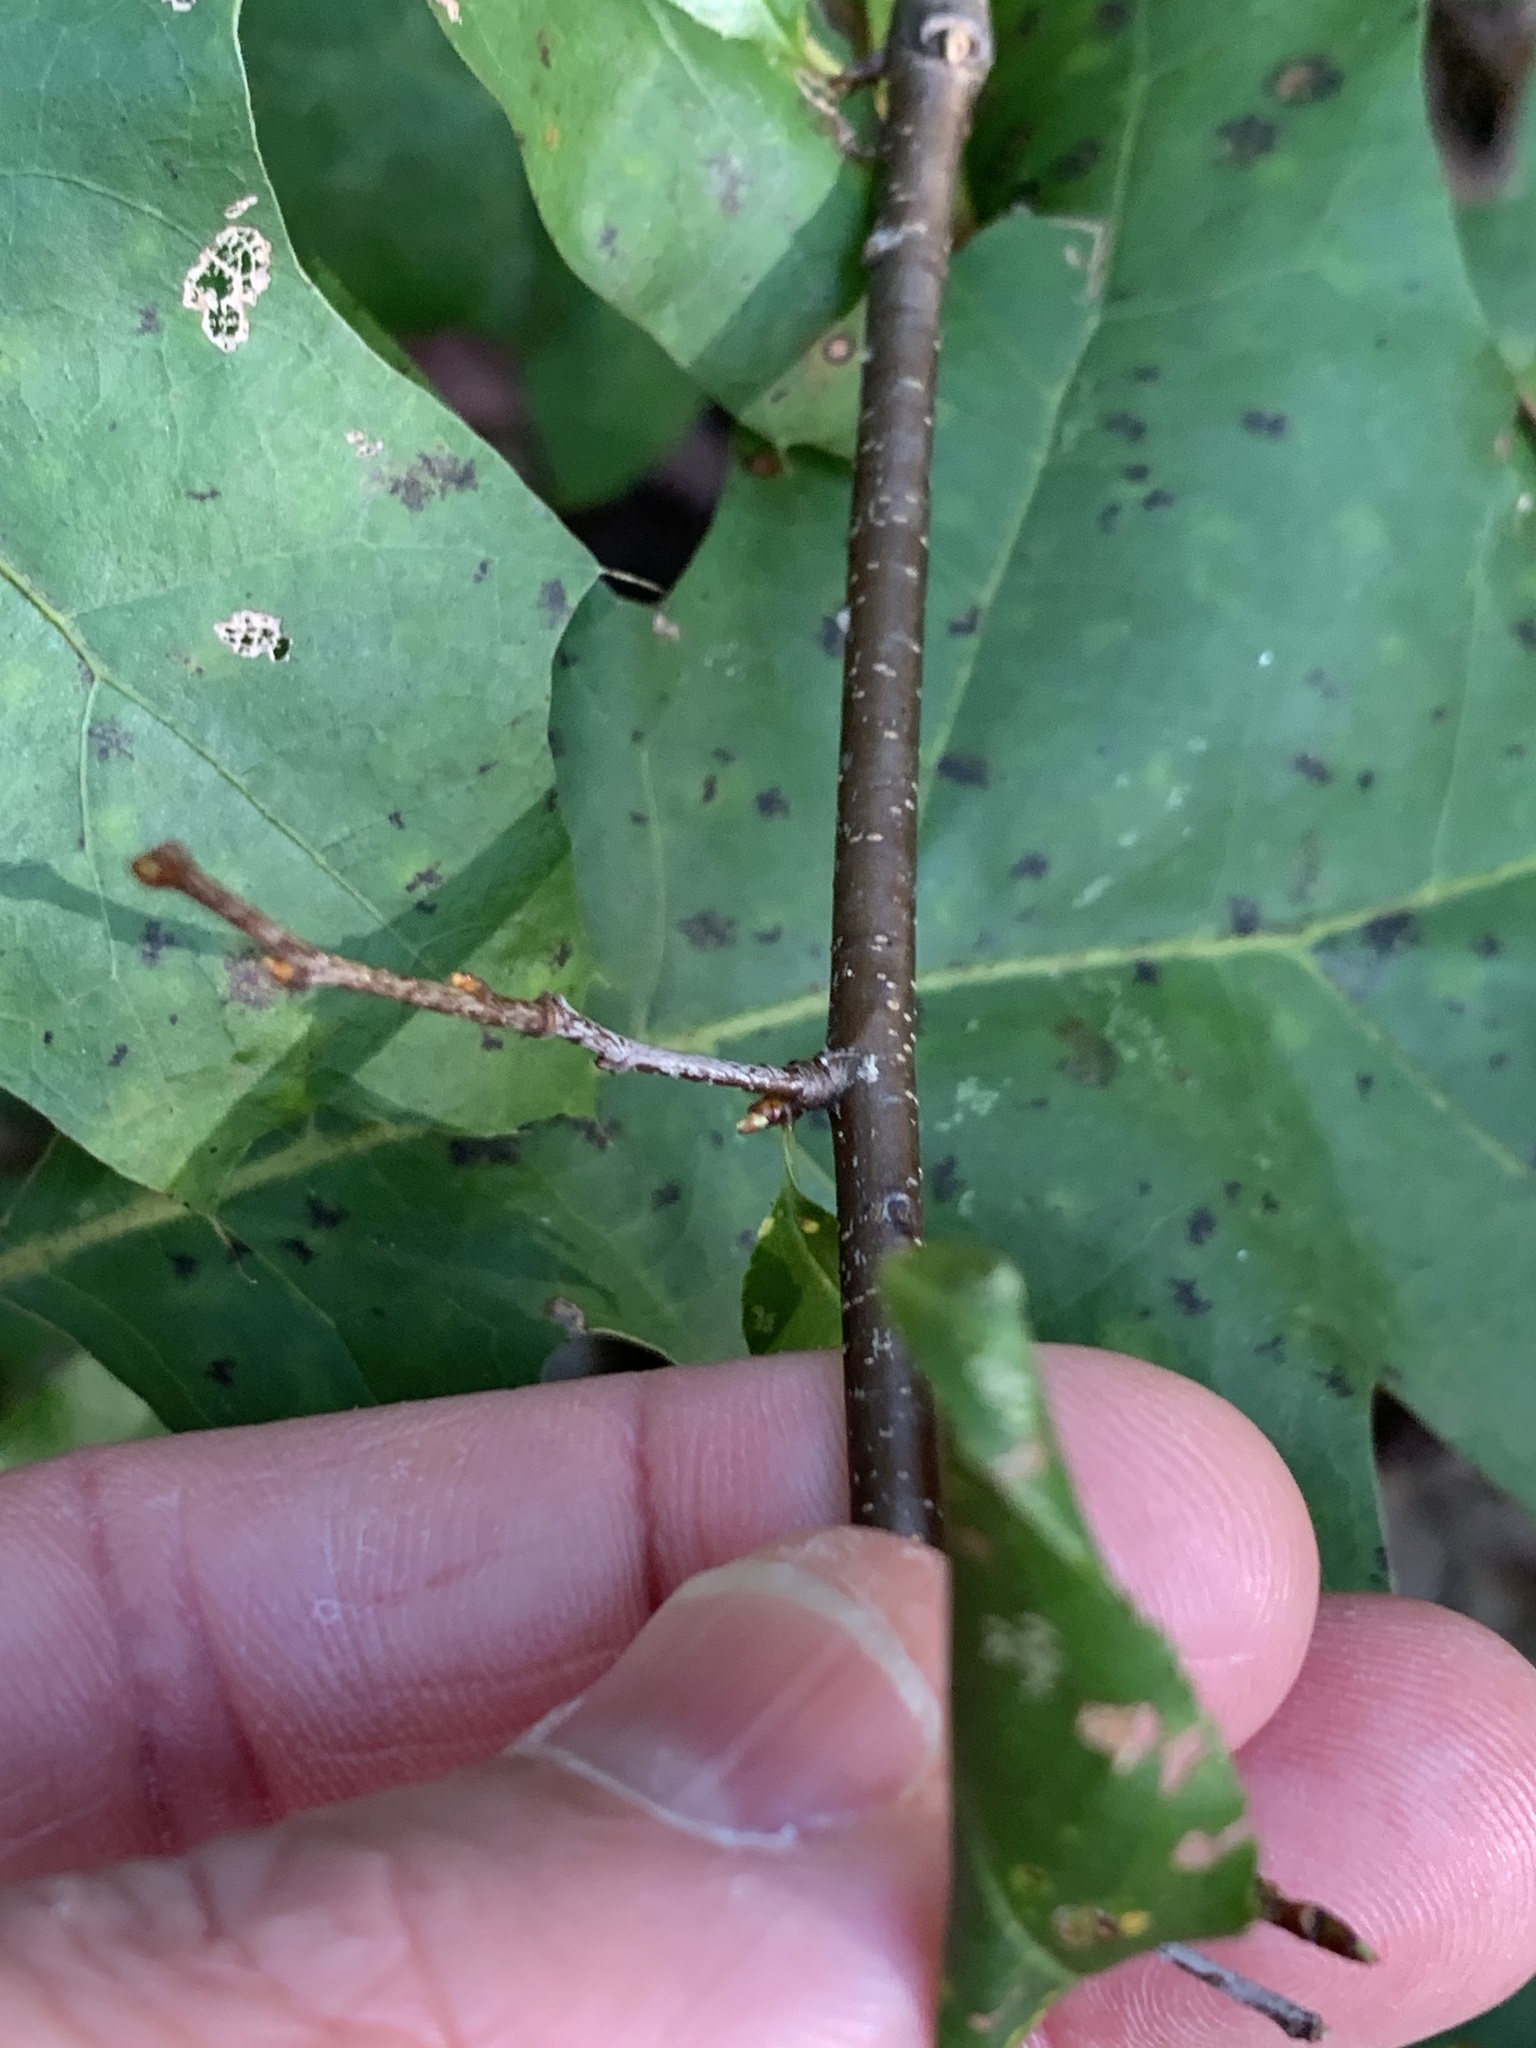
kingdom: Plantae
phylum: Tracheophyta
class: Magnoliopsida
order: Rosales
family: Rosaceae
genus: Prunus
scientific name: Prunus serotina
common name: Black cherry
